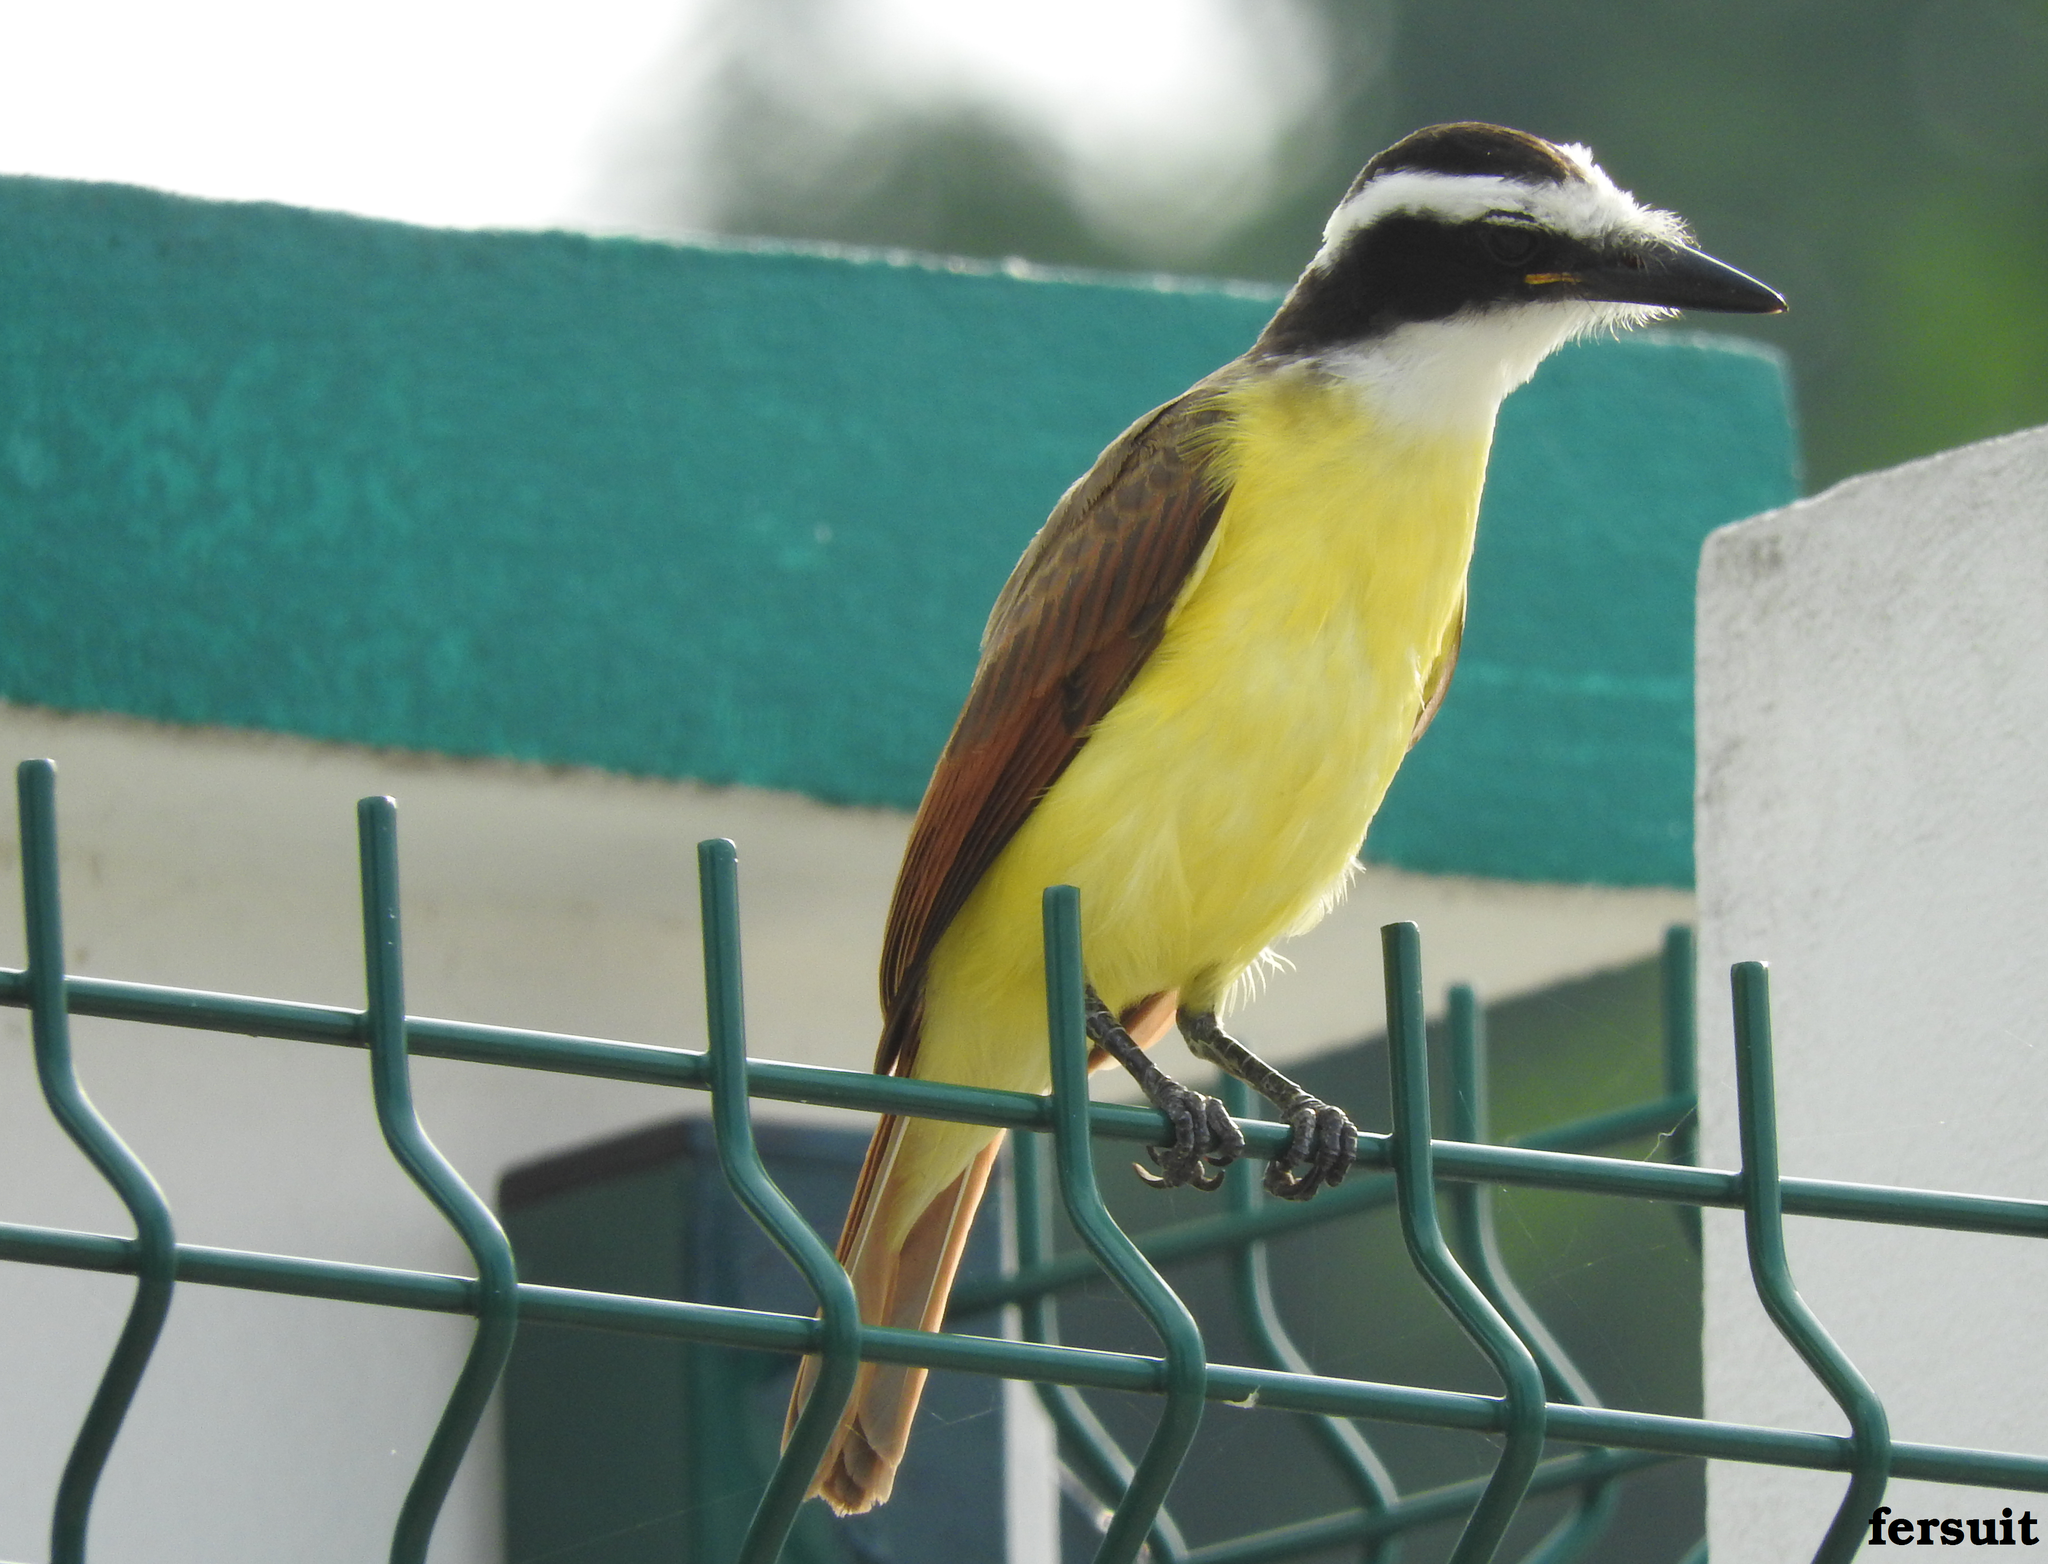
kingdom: Animalia
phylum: Chordata
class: Aves
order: Passeriformes
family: Tyrannidae
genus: Pitangus
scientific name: Pitangus sulphuratus
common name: Great kiskadee
